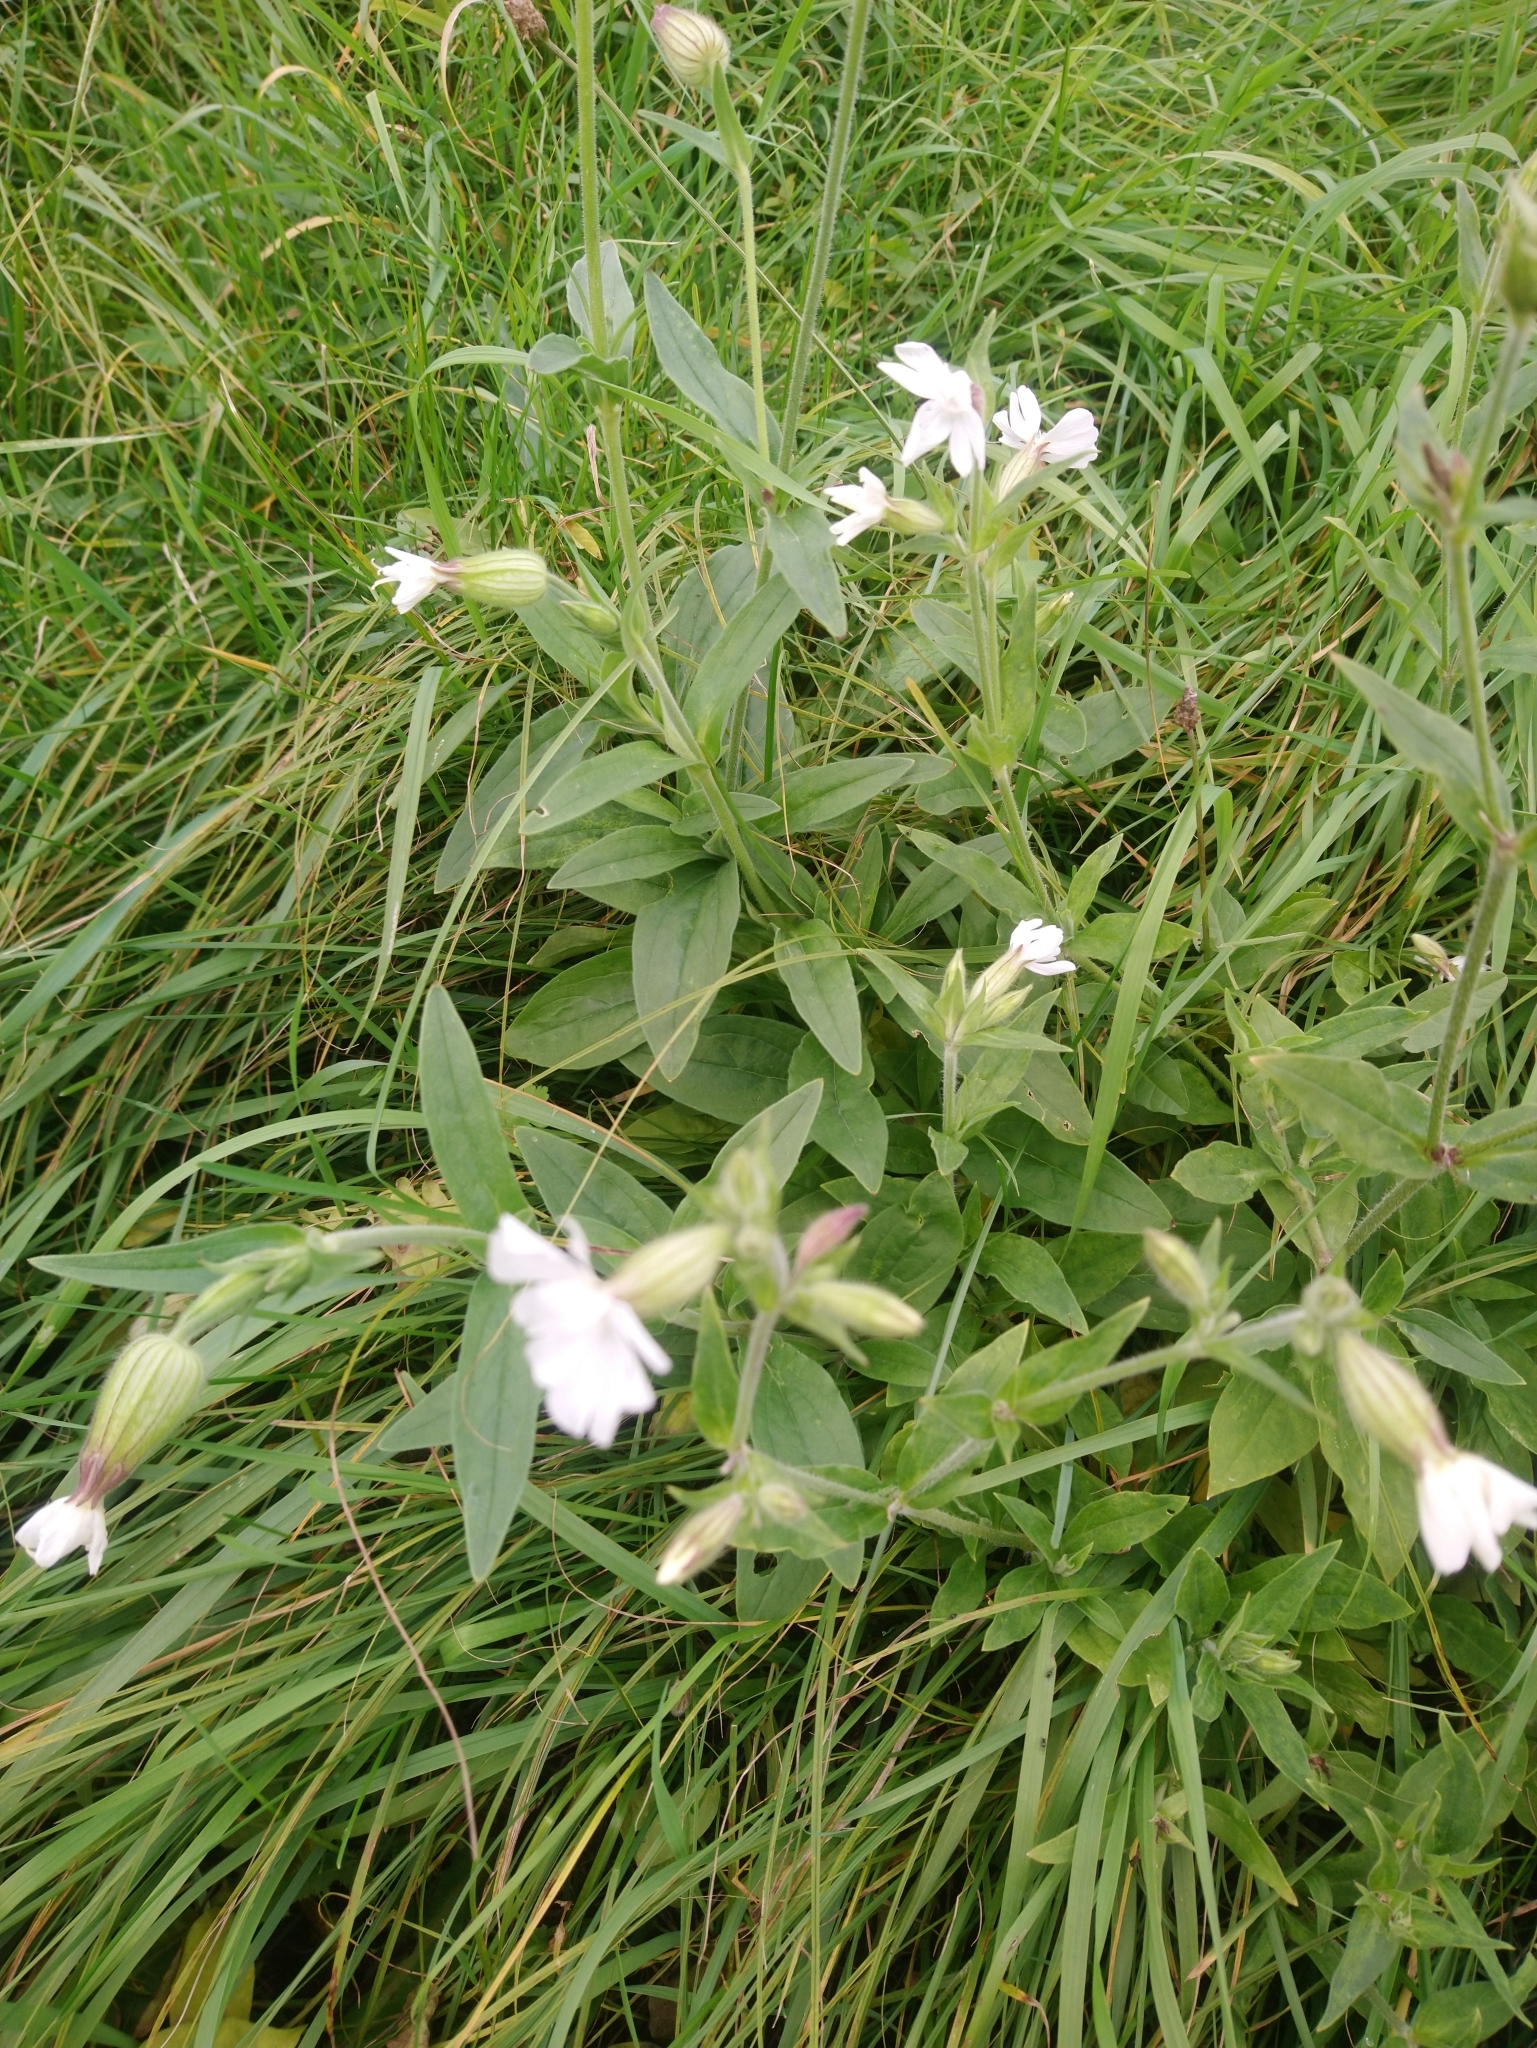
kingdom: Plantae
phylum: Tracheophyta
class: Magnoliopsida
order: Caryophyllales
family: Caryophyllaceae
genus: Silene
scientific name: Silene latifolia
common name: White campion
